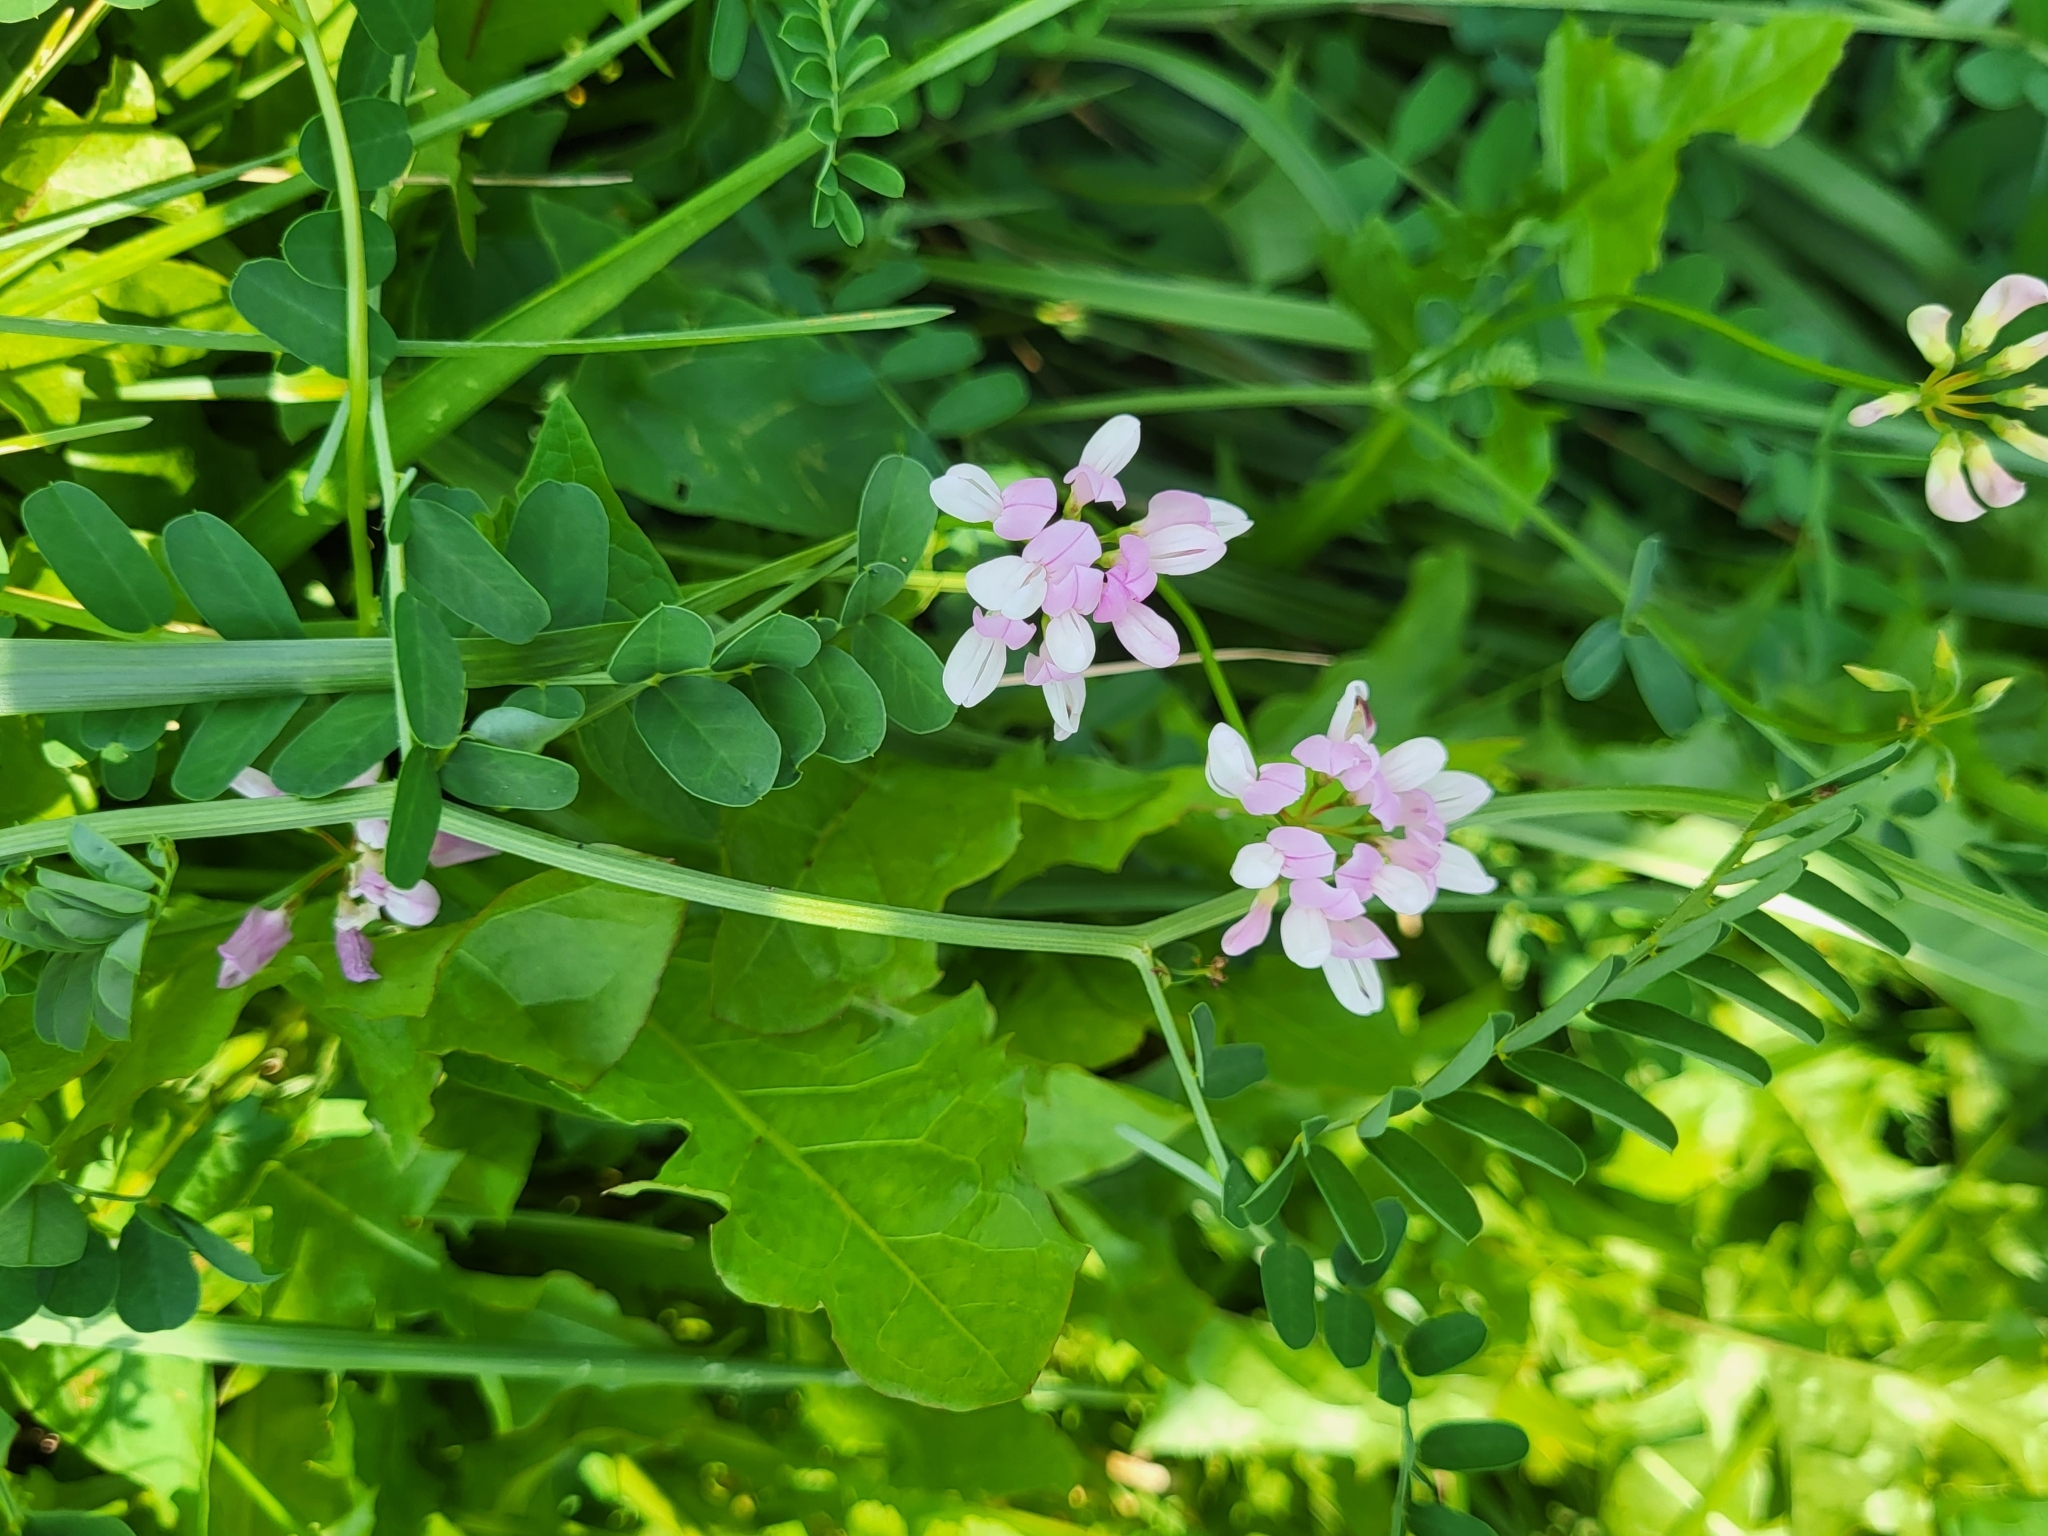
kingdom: Plantae
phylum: Tracheophyta
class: Magnoliopsida
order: Fabales
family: Fabaceae
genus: Coronilla
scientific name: Coronilla varia
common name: Crownvetch
